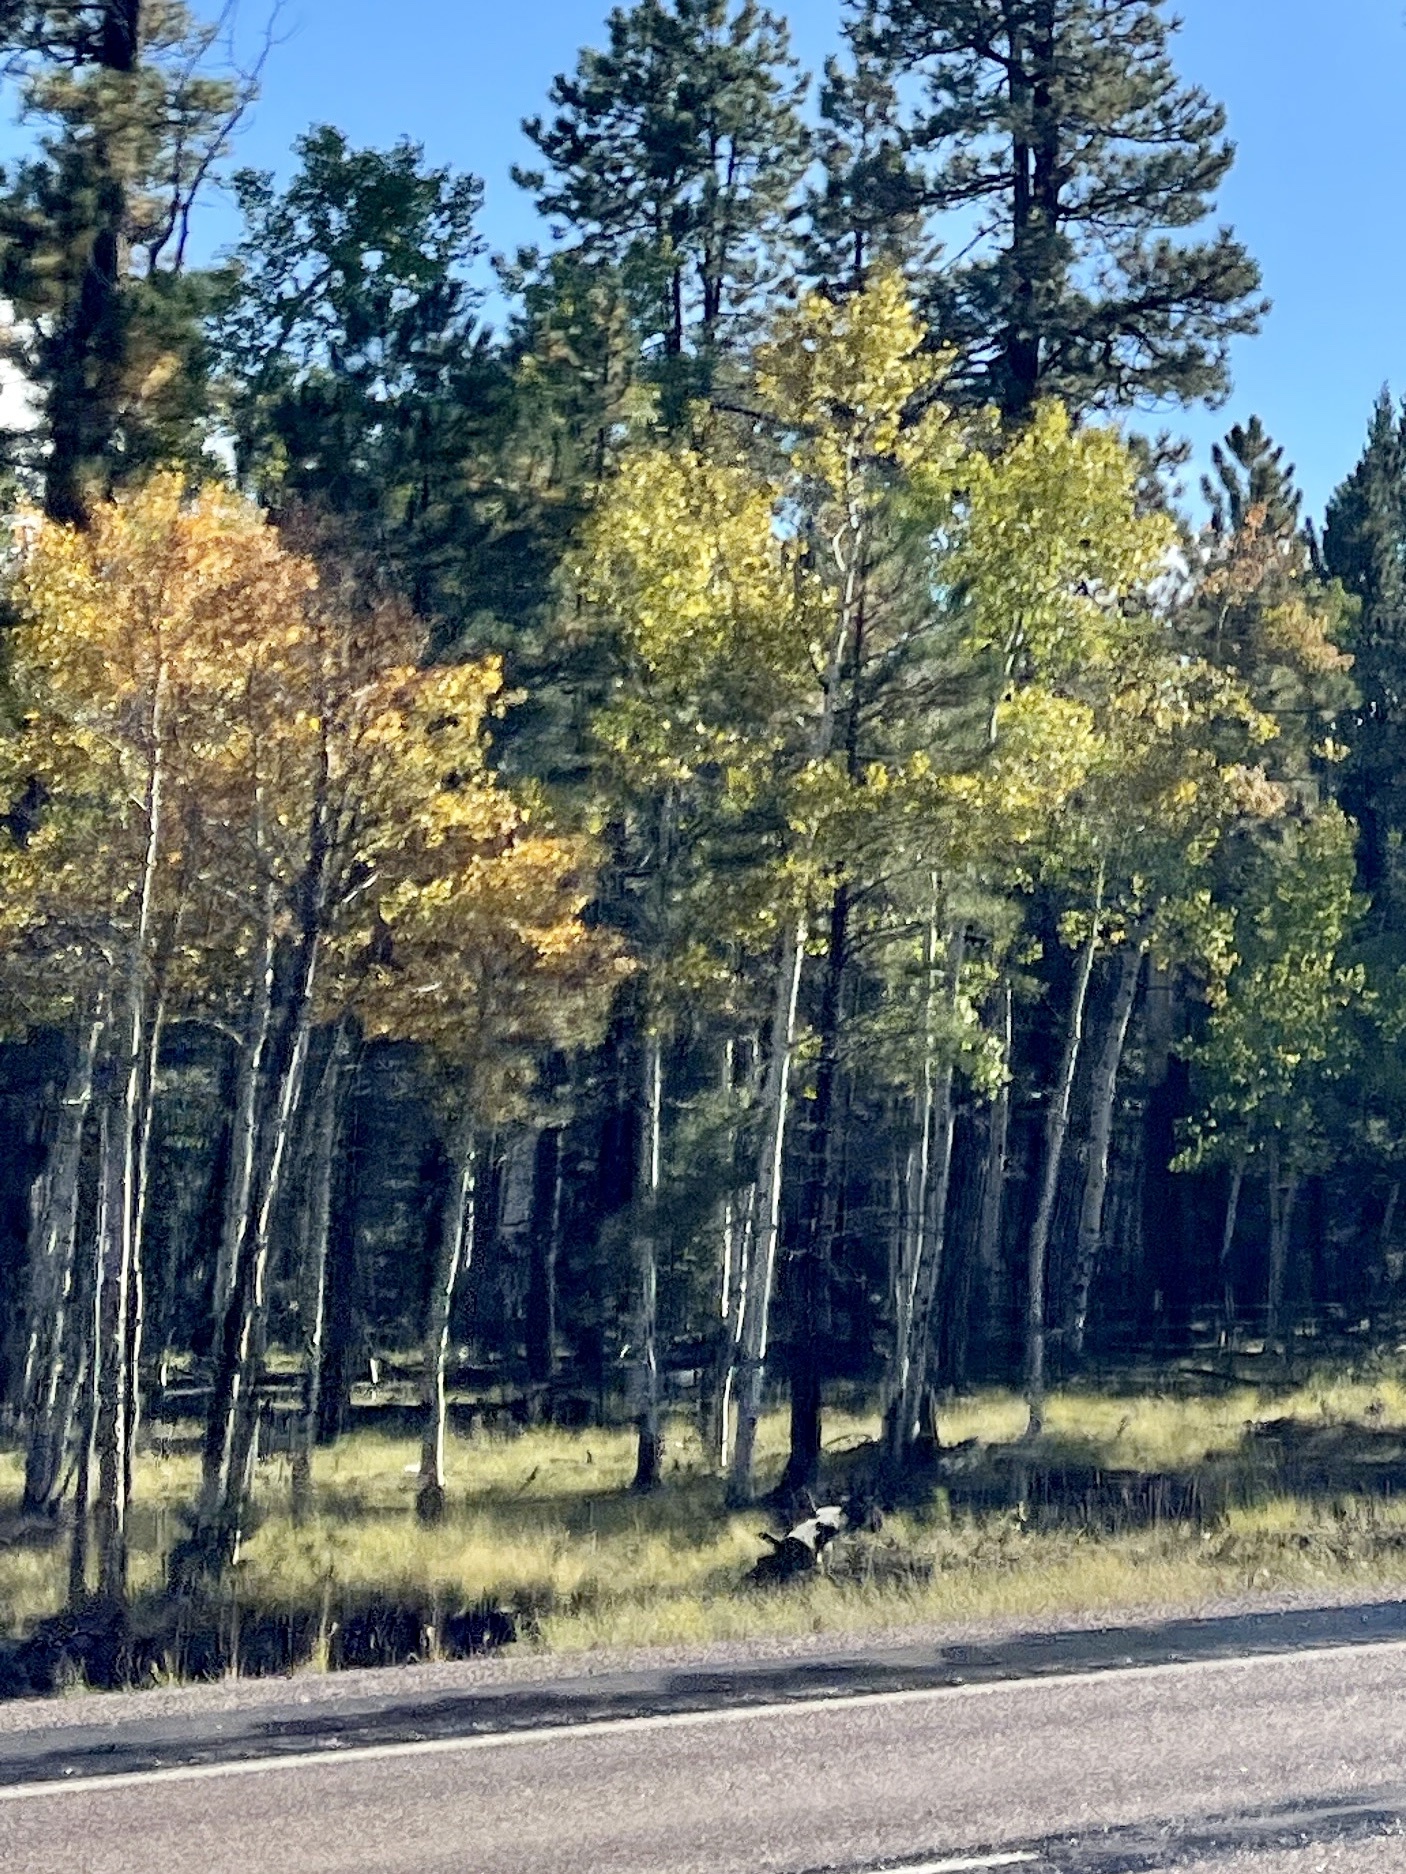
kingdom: Plantae
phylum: Tracheophyta
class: Magnoliopsida
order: Malpighiales
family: Salicaceae
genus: Populus
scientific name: Populus tremuloides
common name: Quaking aspen
